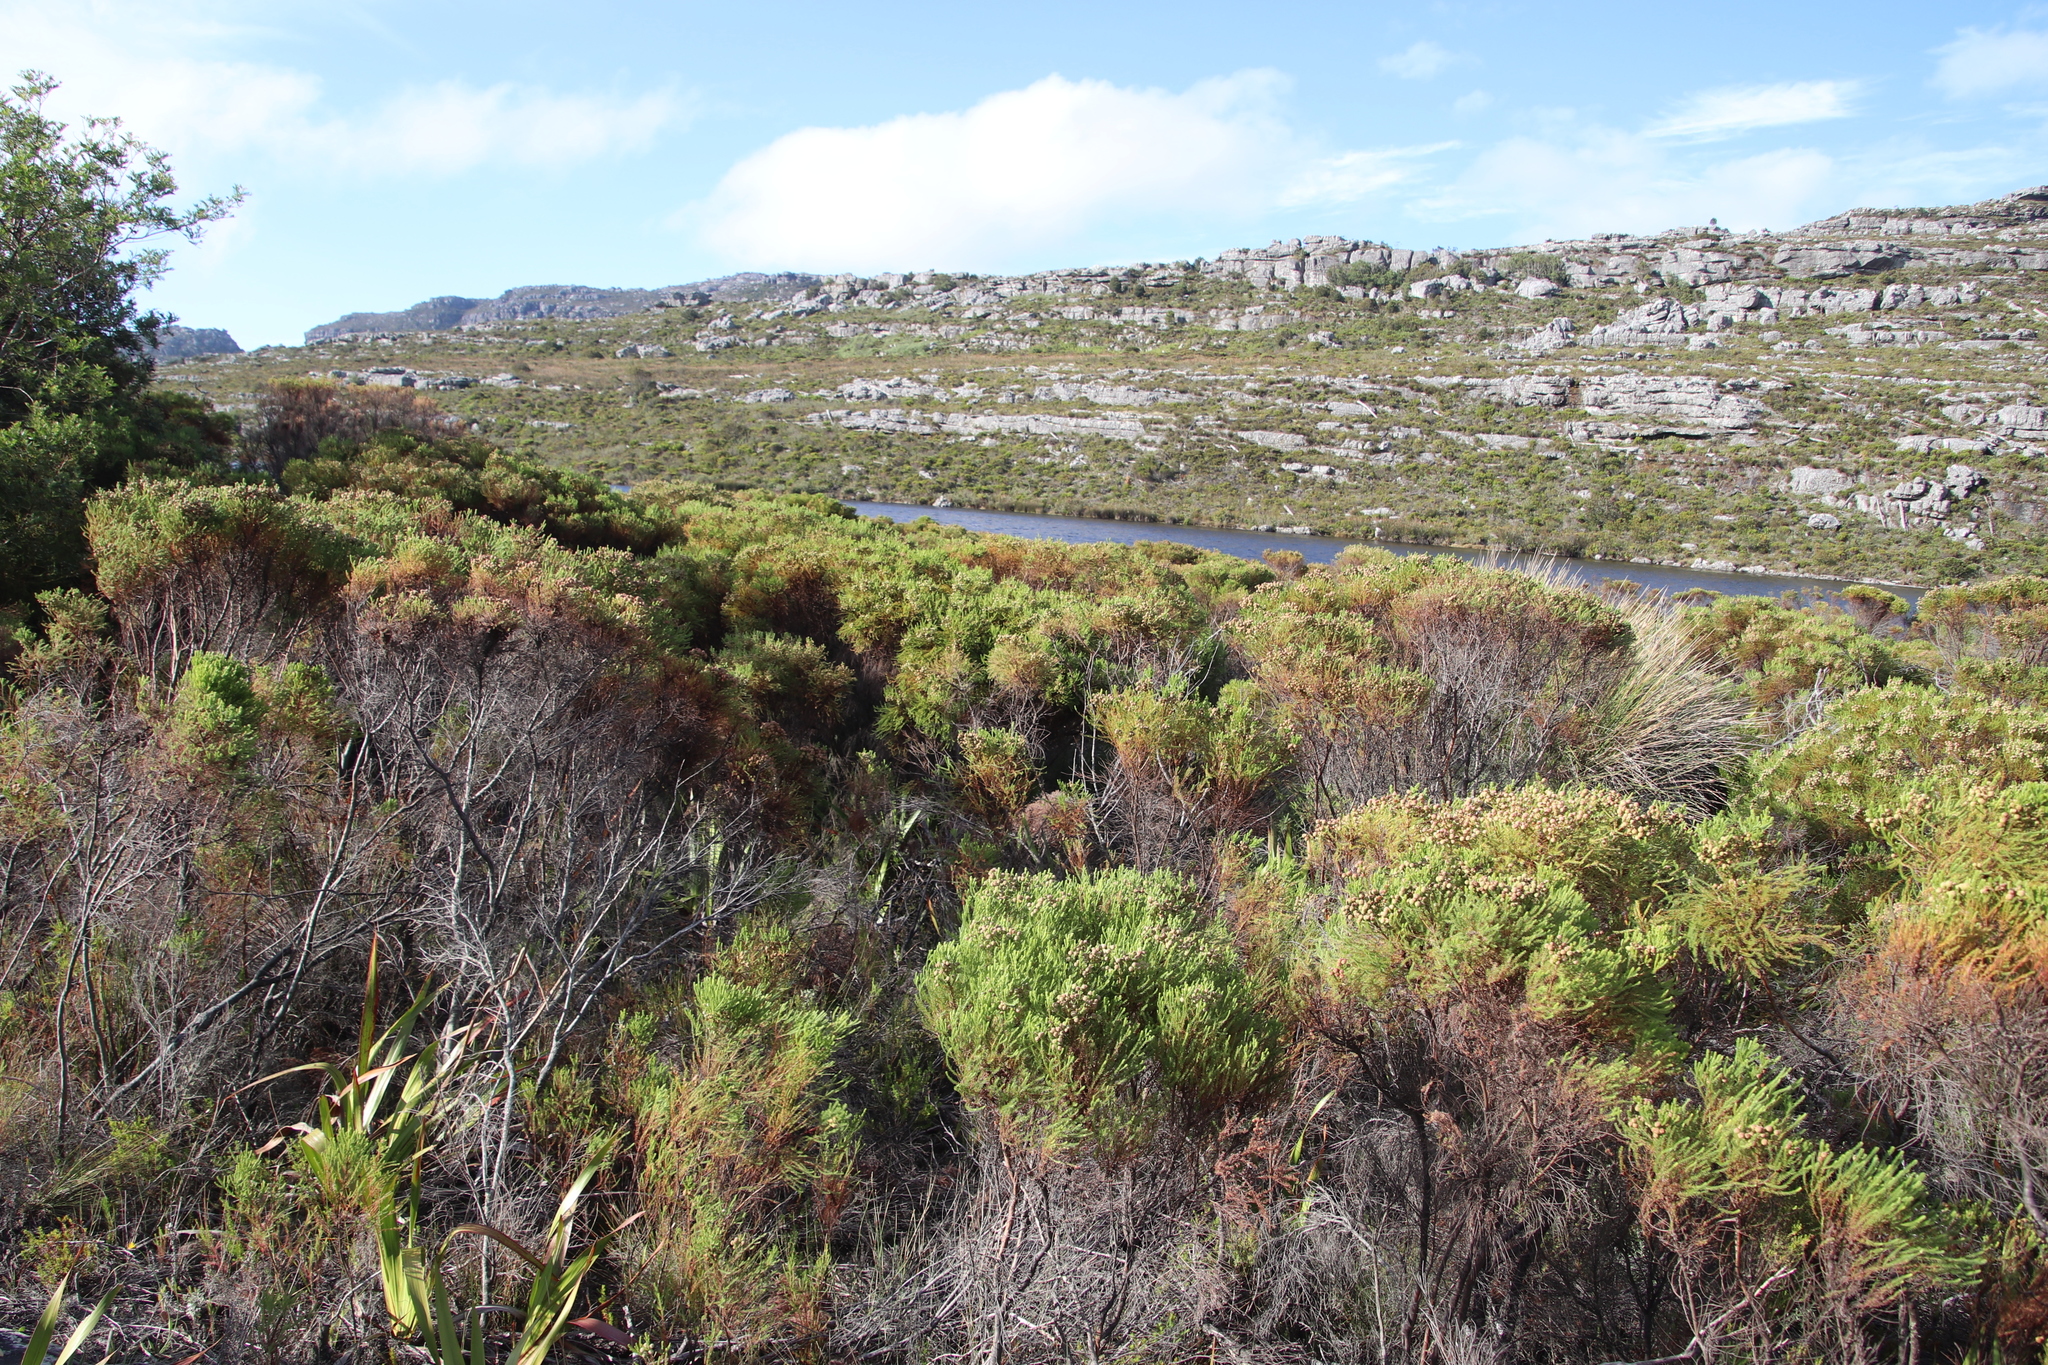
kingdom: Plantae
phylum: Tracheophyta
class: Magnoliopsida
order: Bruniales
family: Bruniaceae
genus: Berzelia
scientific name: Berzelia lanuginosa
